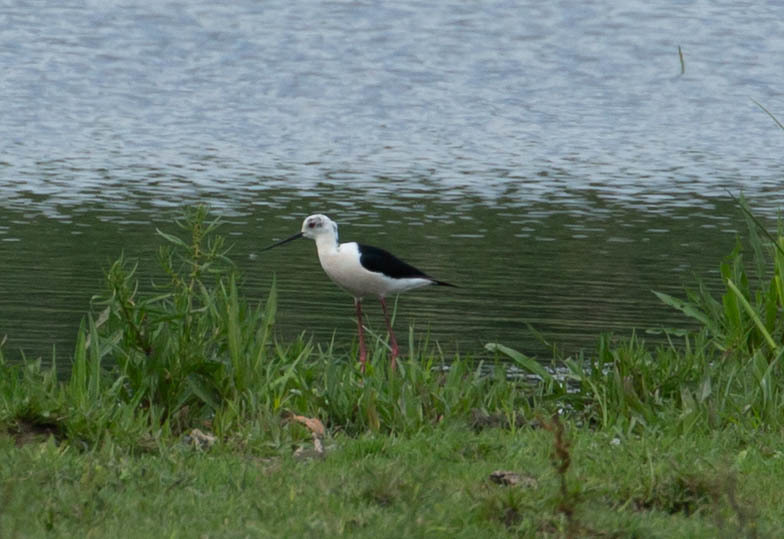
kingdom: Animalia
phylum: Chordata
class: Aves
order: Charadriiformes
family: Recurvirostridae
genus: Himantopus
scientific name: Himantopus himantopus
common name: Black-winged stilt
